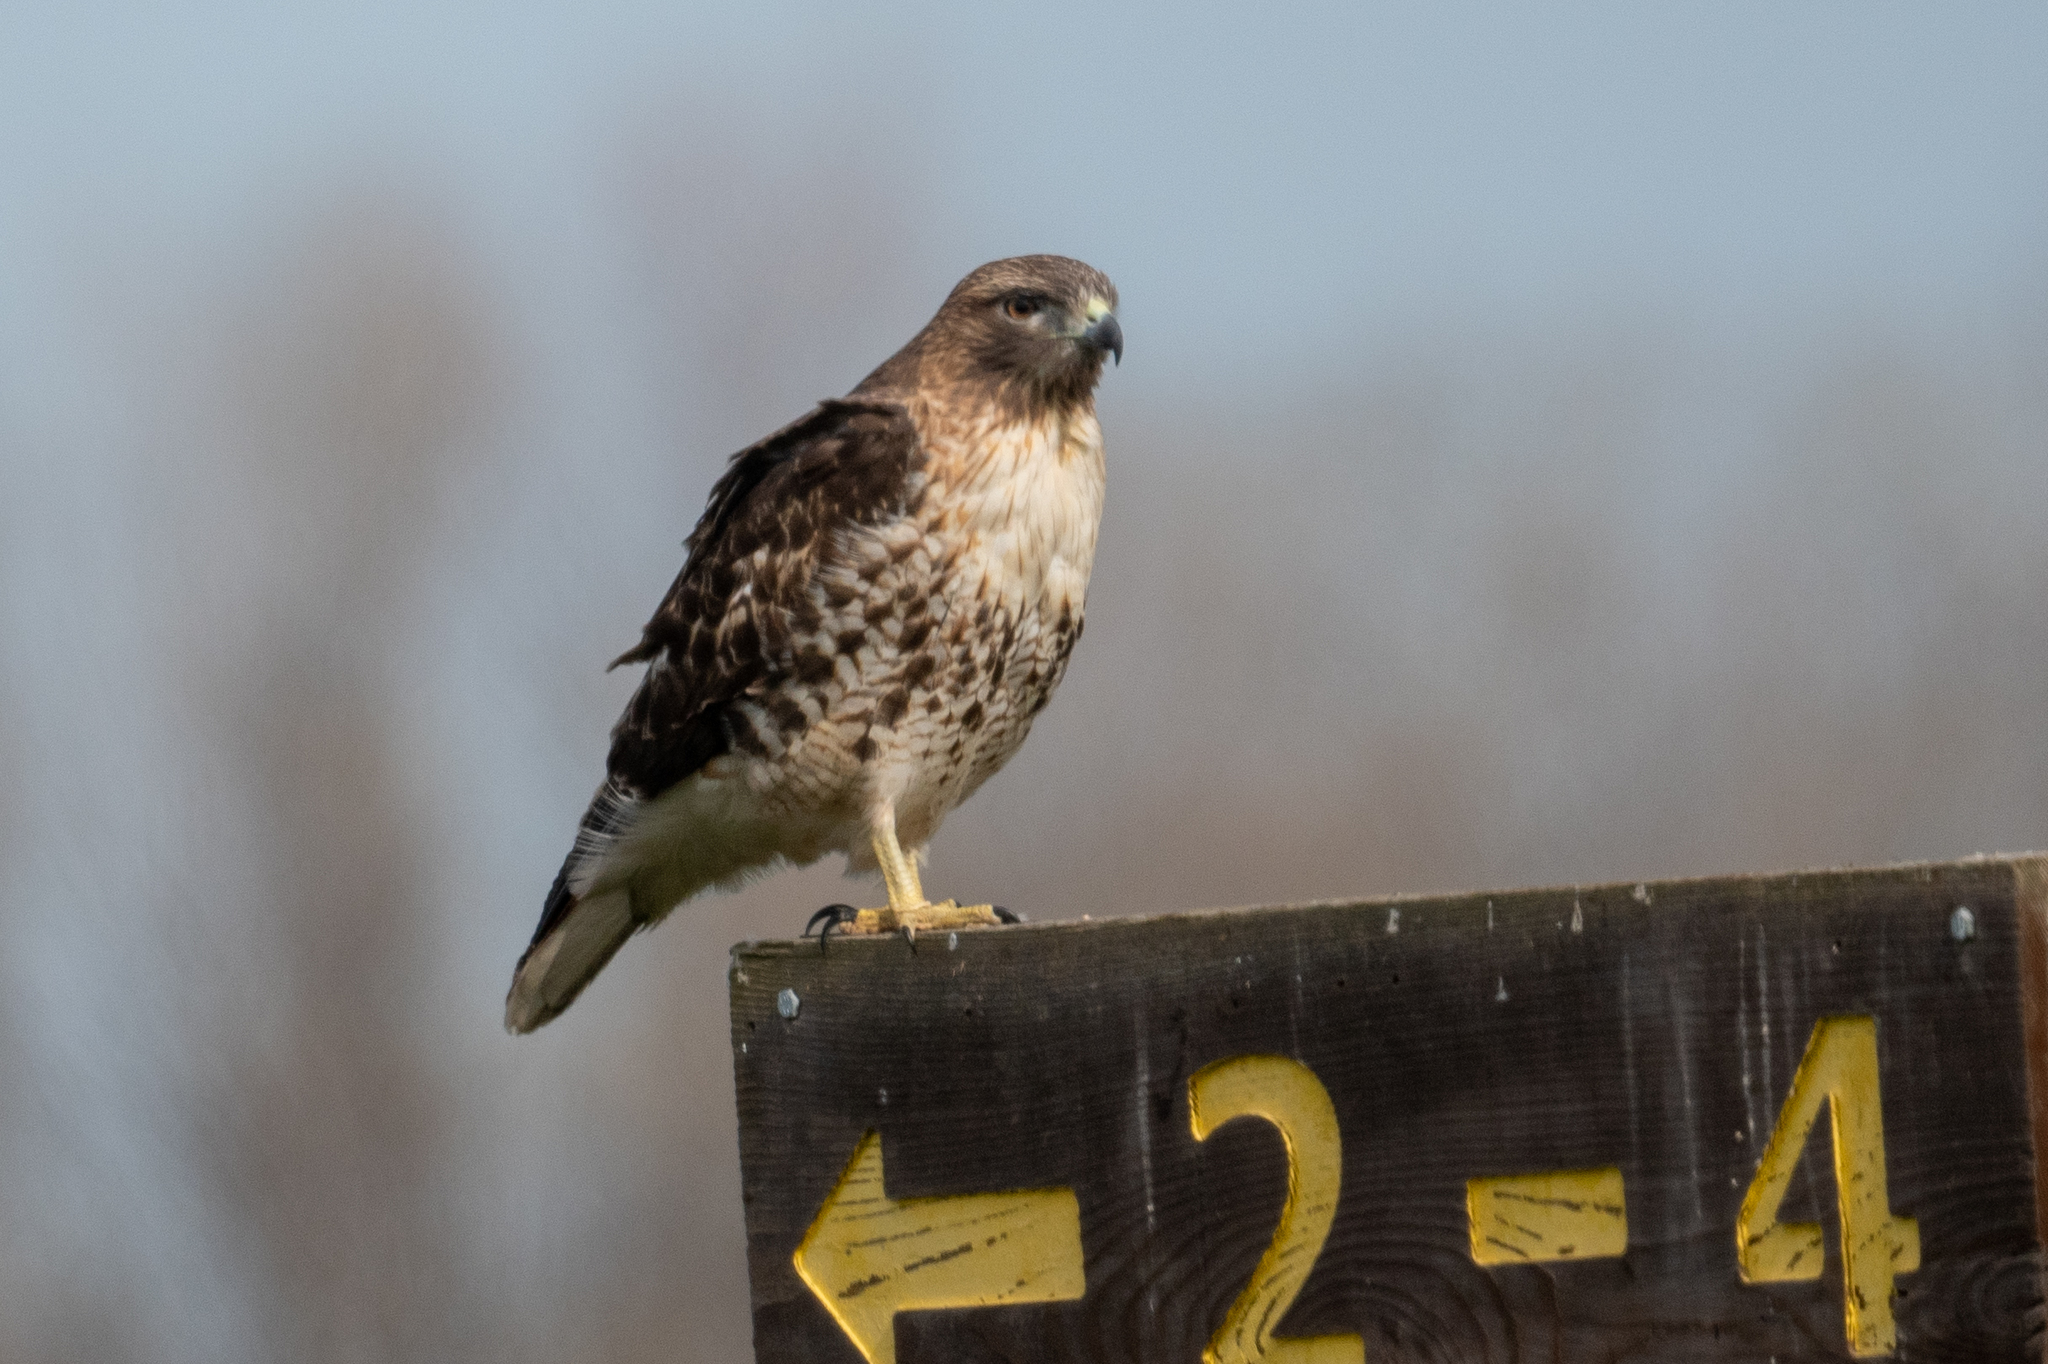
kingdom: Animalia
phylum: Chordata
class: Aves
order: Accipitriformes
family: Accipitridae
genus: Buteo
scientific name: Buteo jamaicensis
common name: Red-tailed hawk
